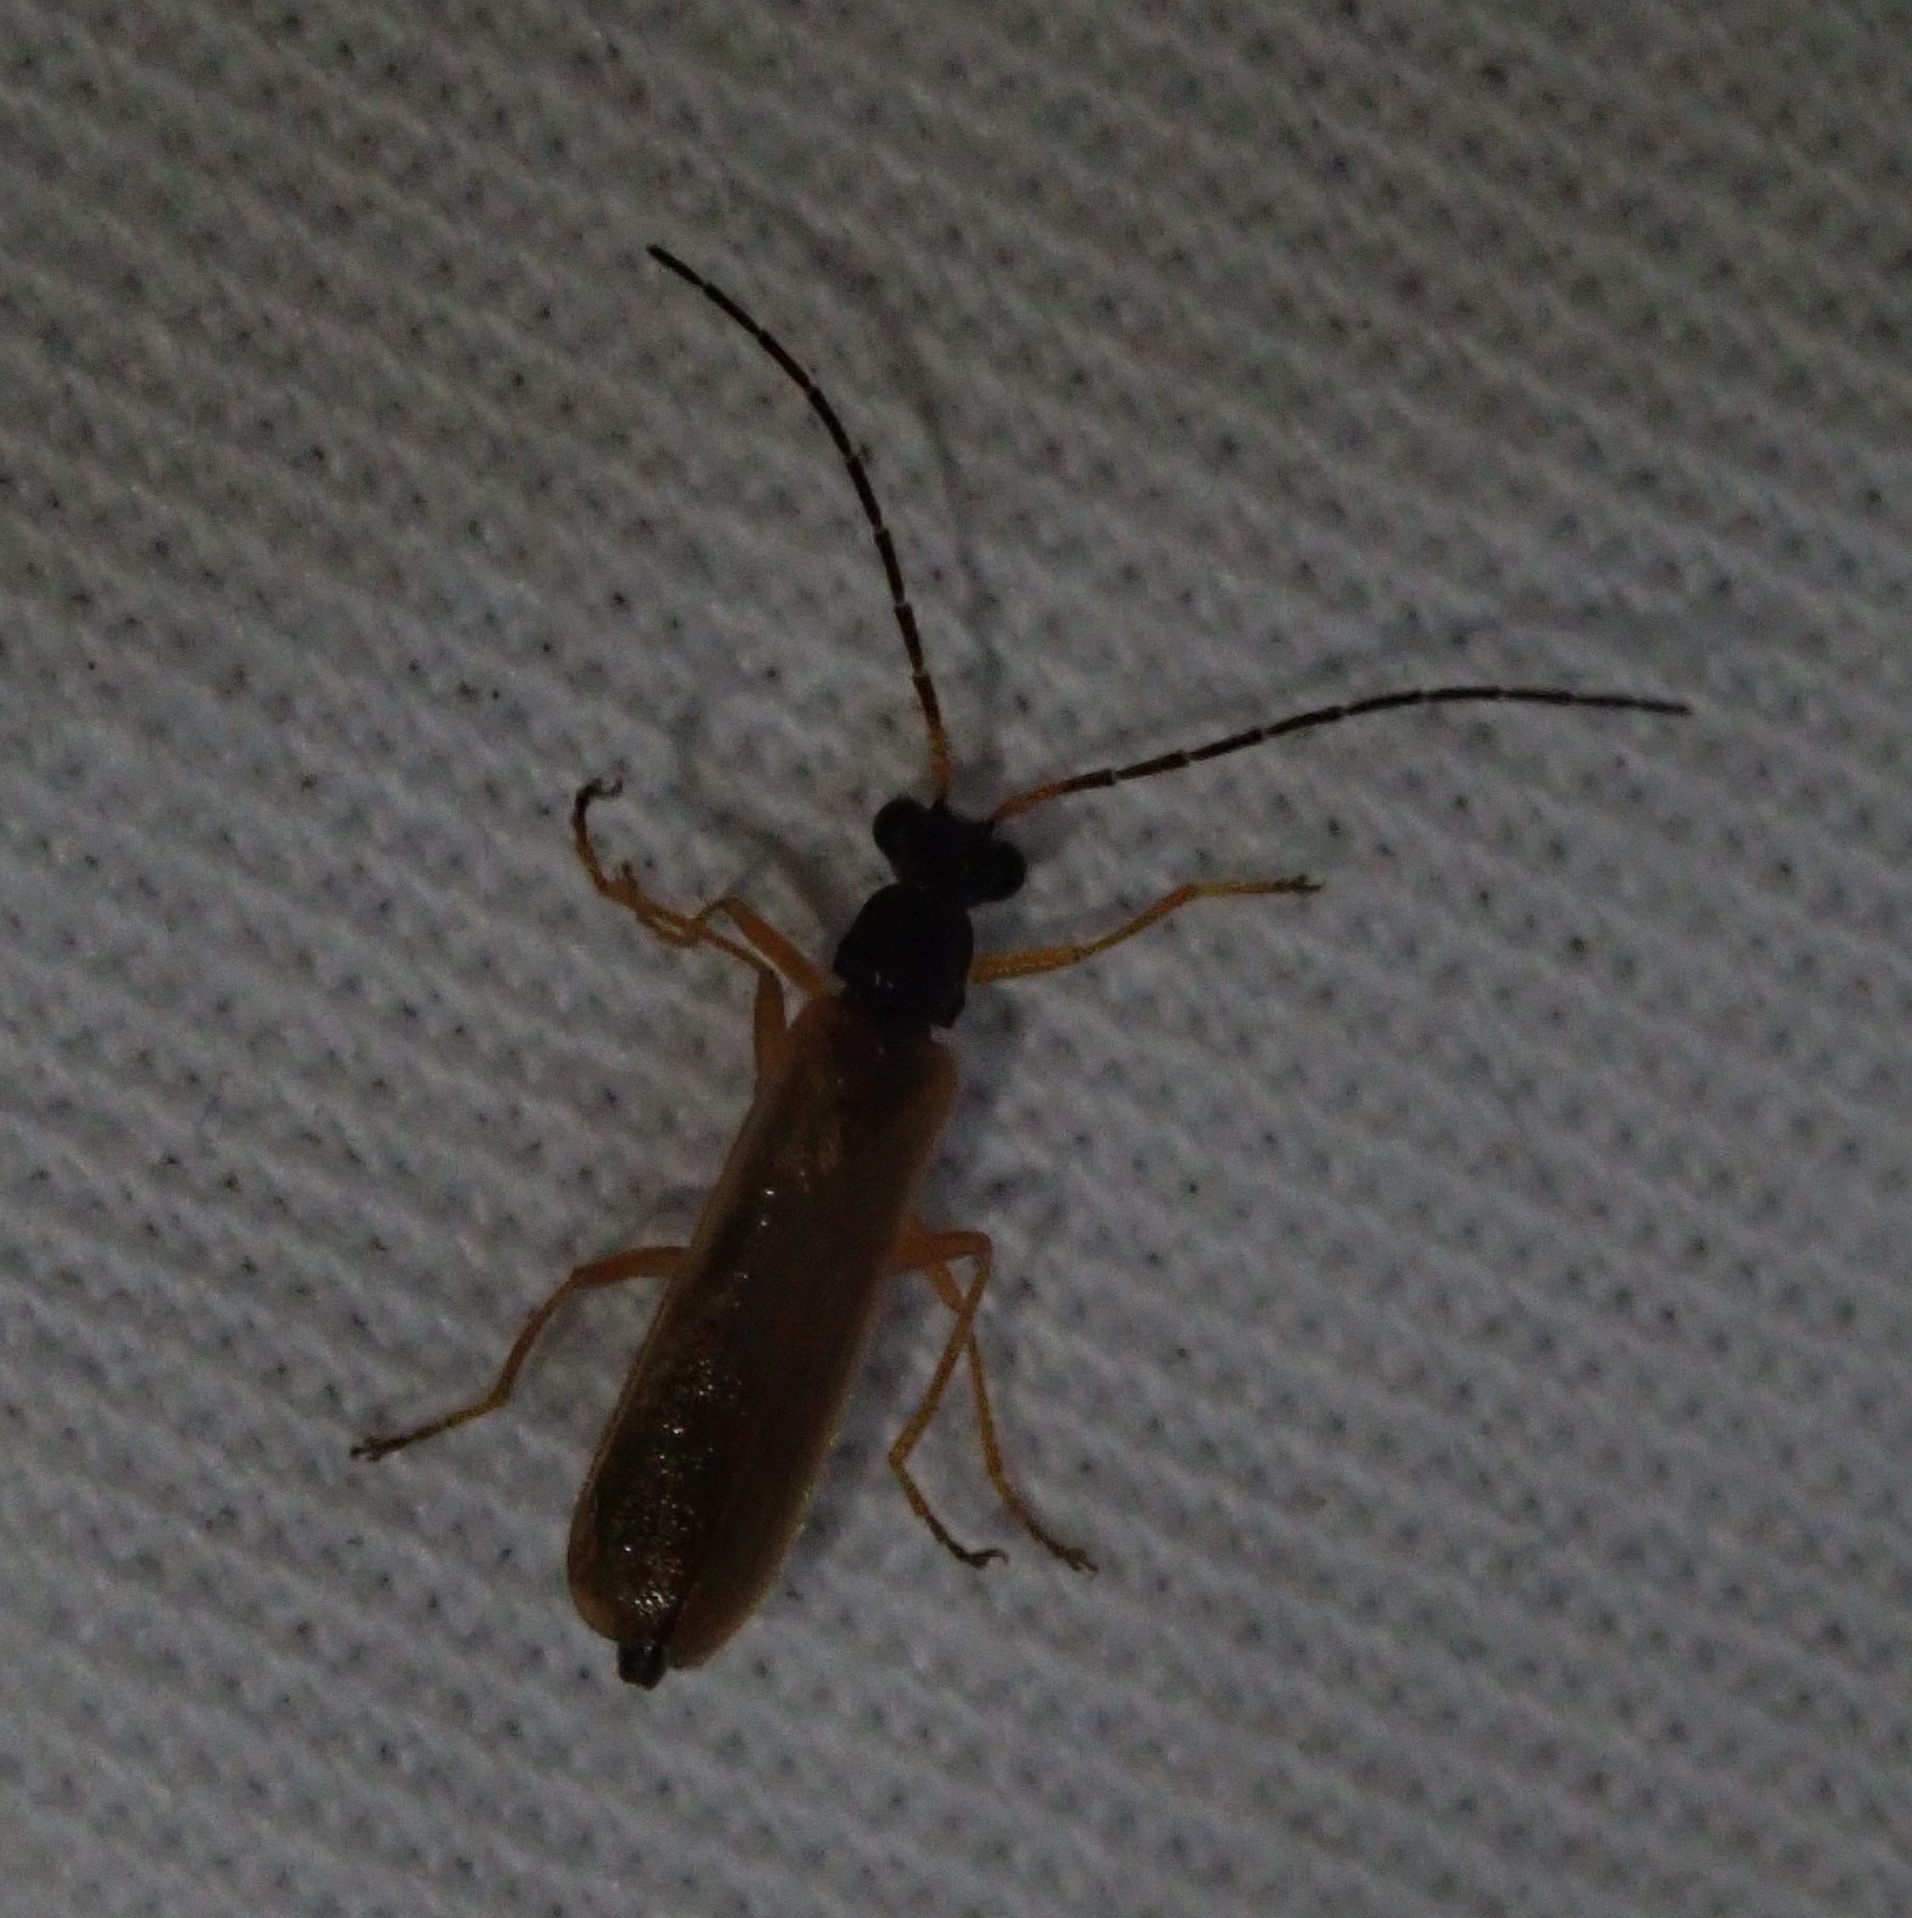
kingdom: Animalia
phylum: Arthropoda
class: Insecta
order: Coleoptera
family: Cantharidae
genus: Rhagonycha
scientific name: Rhagonycha lignosa
